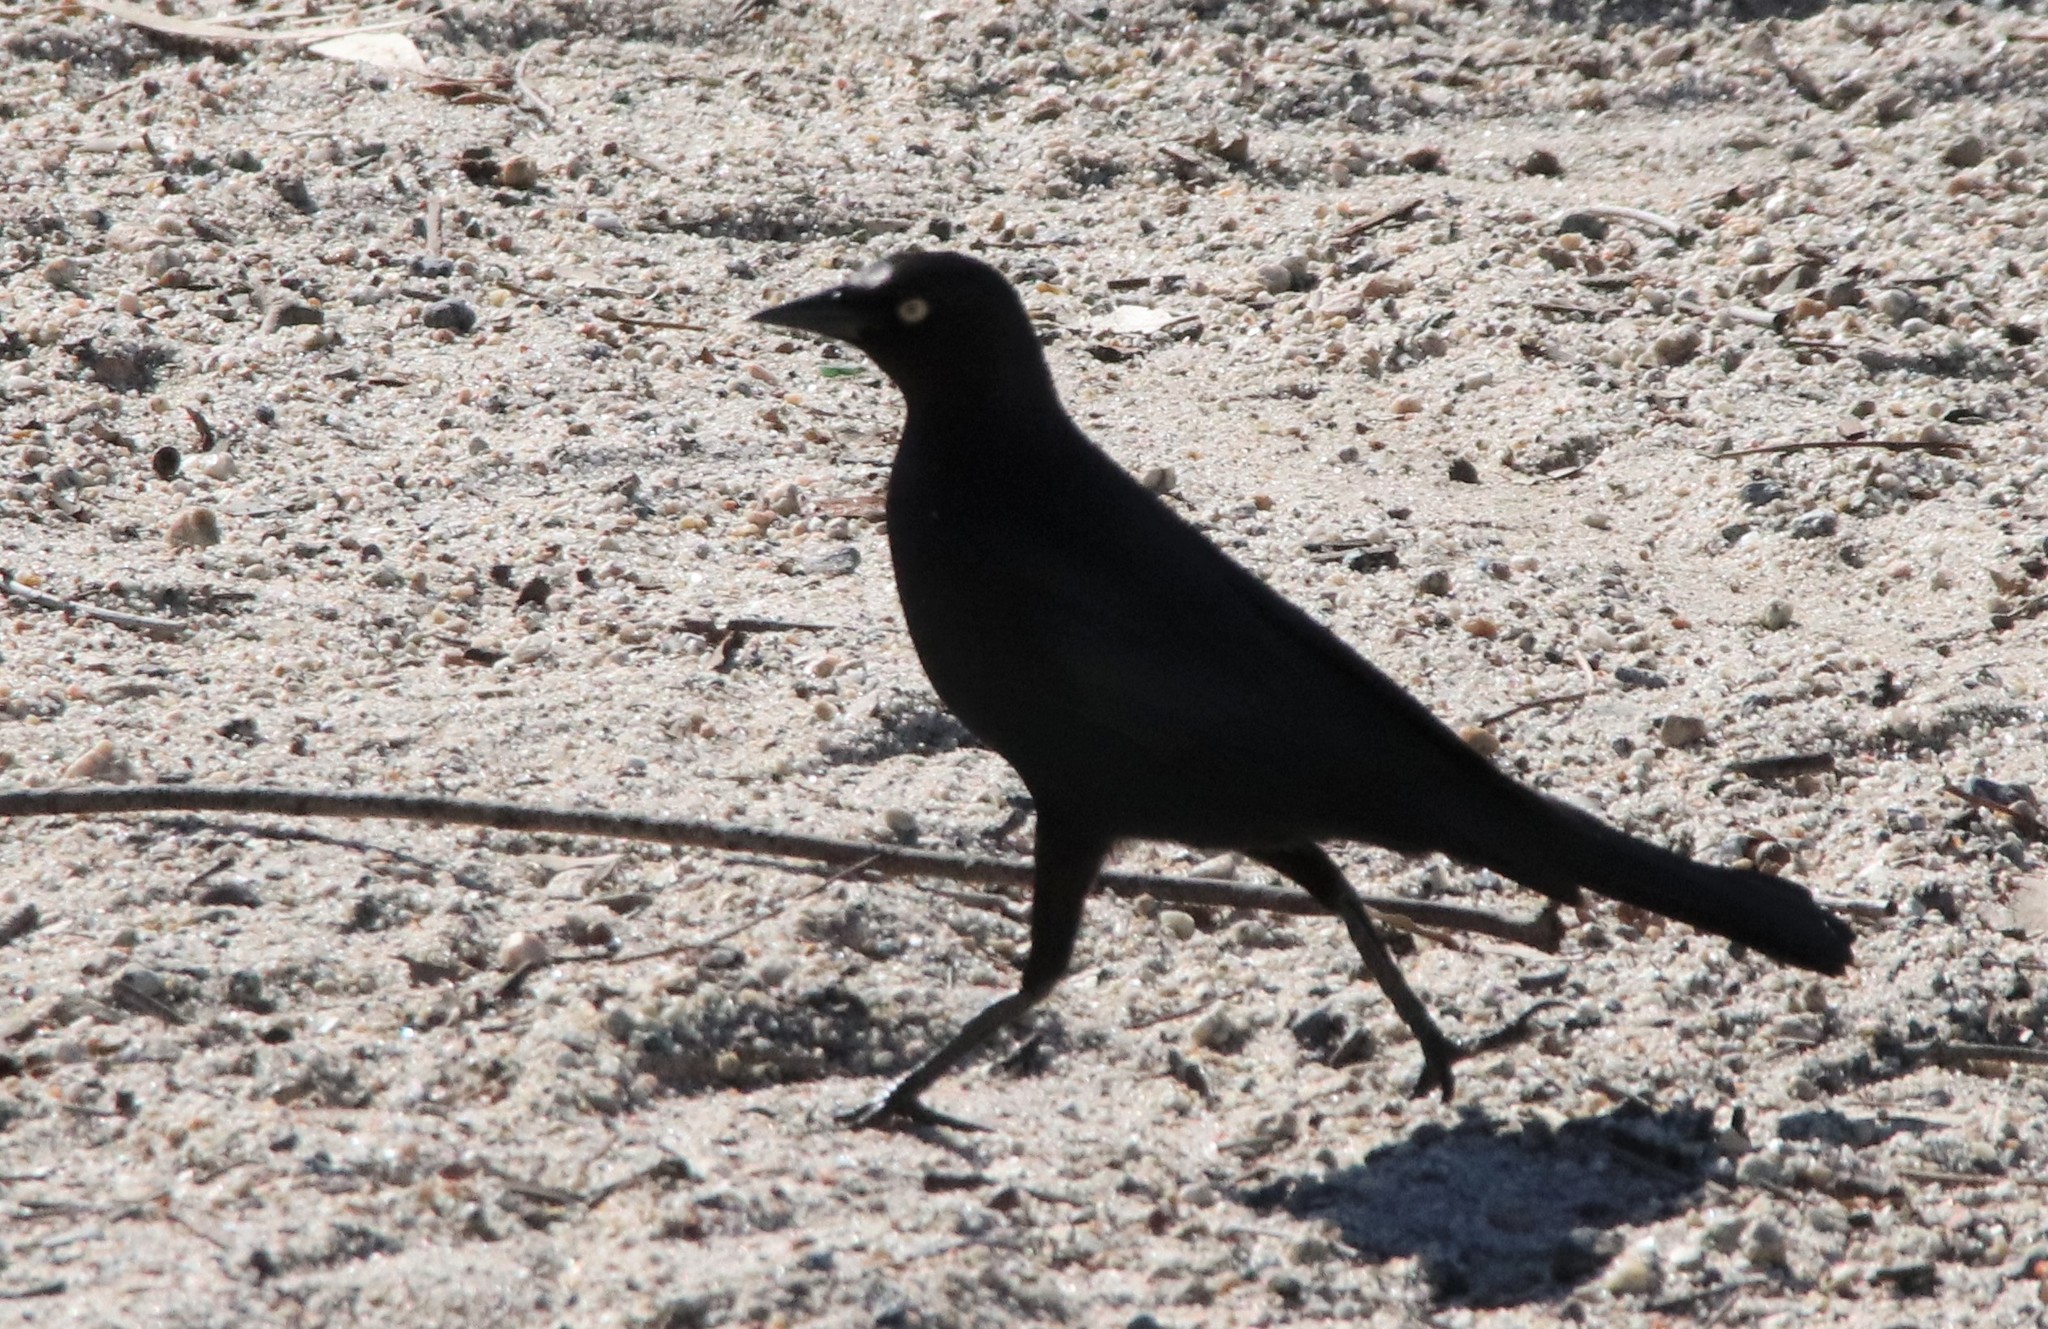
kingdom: Animalia
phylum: Chordata
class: Aves
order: Passeriformes
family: Icteridae
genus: Euphagus
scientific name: Euphagus cyanocephalus
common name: Brewer's blackbird
